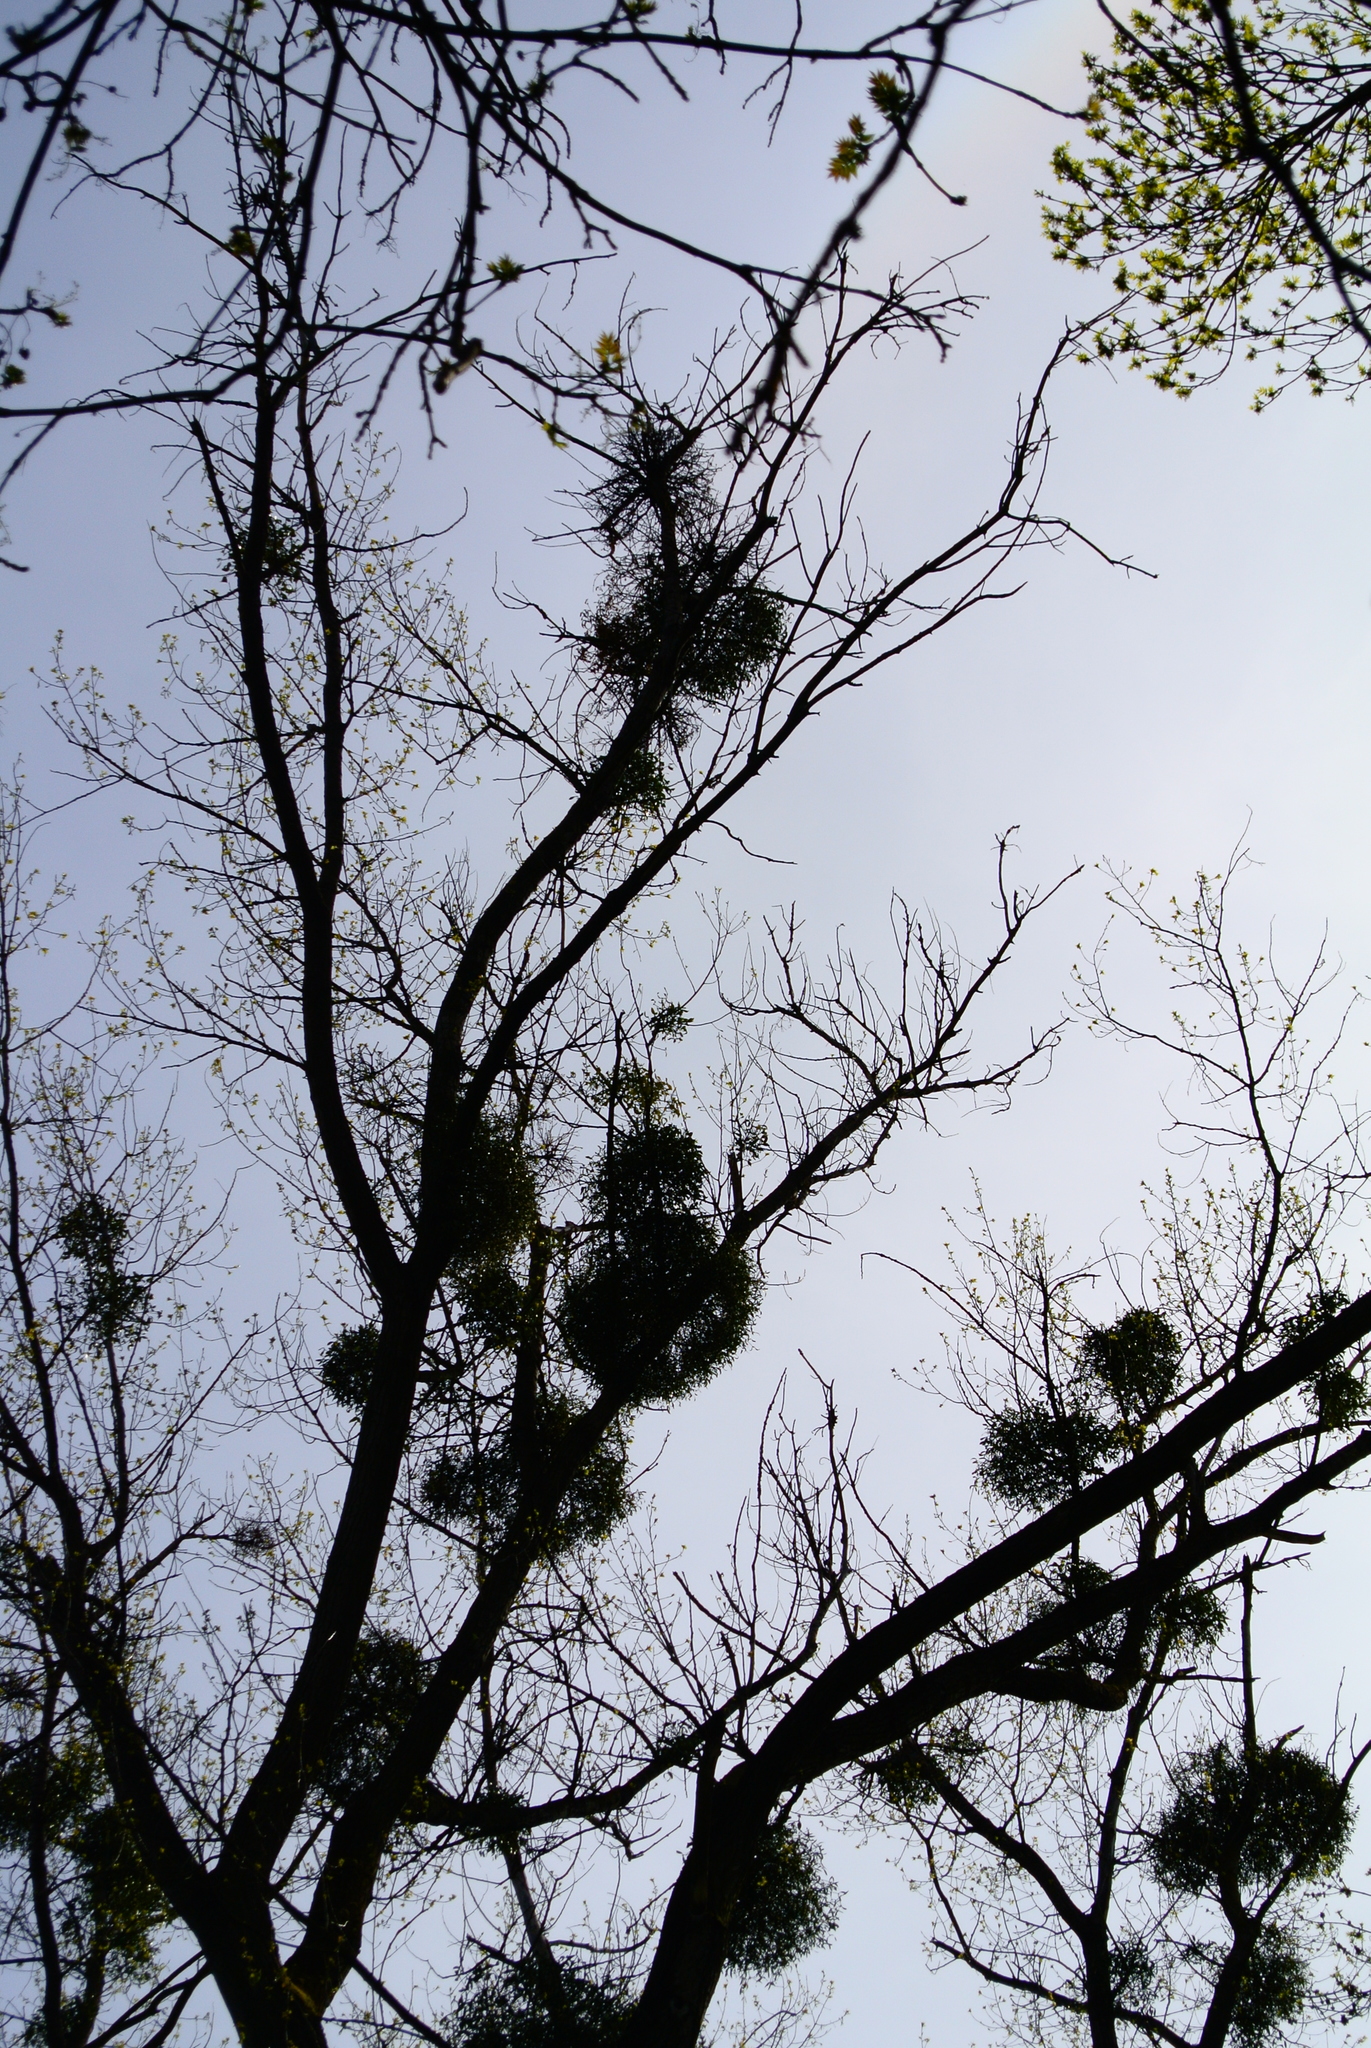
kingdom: Plantae
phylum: Tracheophyta
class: Magnoliopsida
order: Santalales
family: Viscaceae
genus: Viscum
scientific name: Viscum album
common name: Mistletoe
